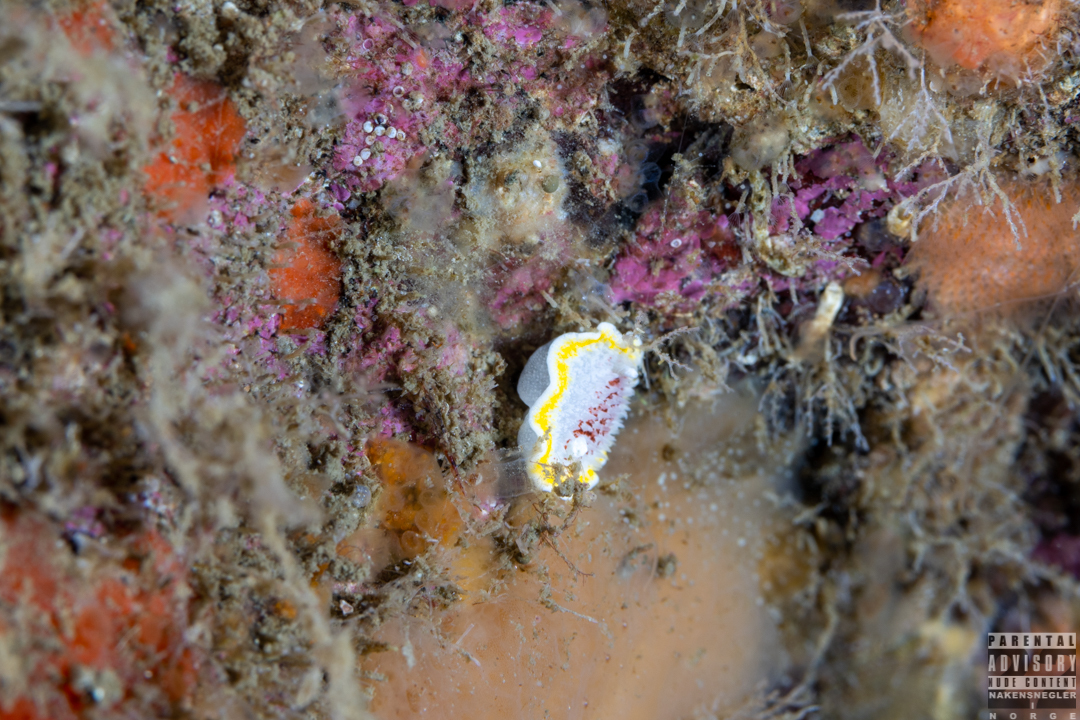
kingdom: Animalia
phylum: Mollusca
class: Gastropoda
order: Nudibranchia
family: Calycidorididae
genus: Diaphorodoris
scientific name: Diaphorodoris luteocincta
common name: Fried egg nudibranch
